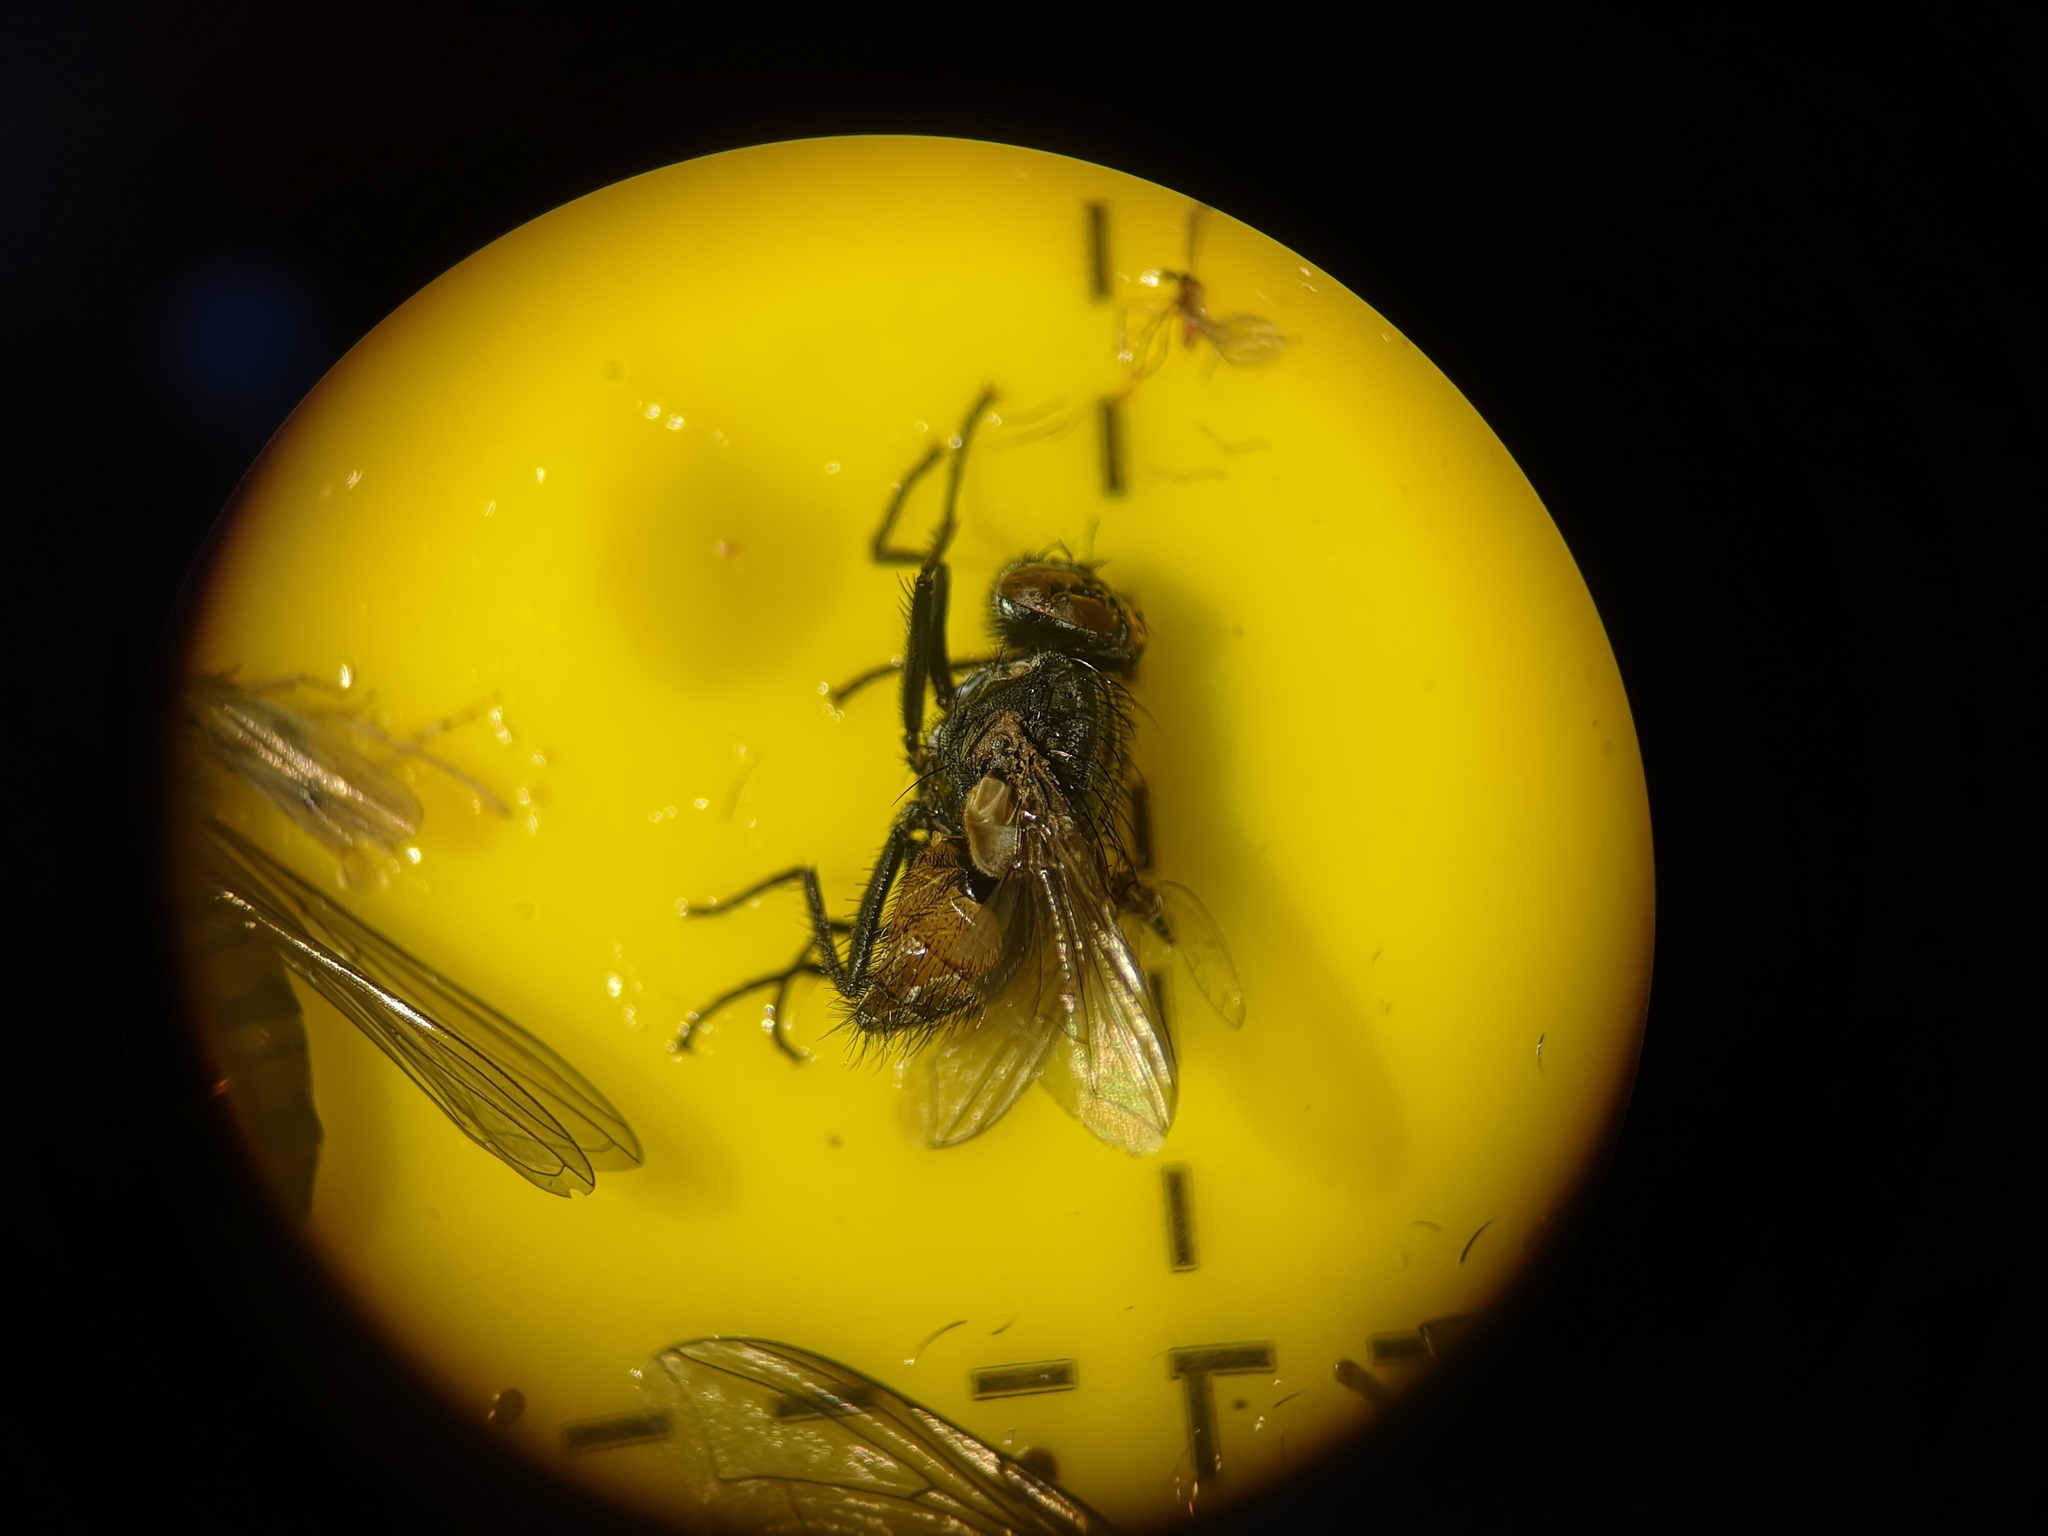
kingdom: Animalia
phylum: Arthropoda
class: Insecta
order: Diptera
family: Muscidae
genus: Musca
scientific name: Musca autumnalis
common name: Face fly
